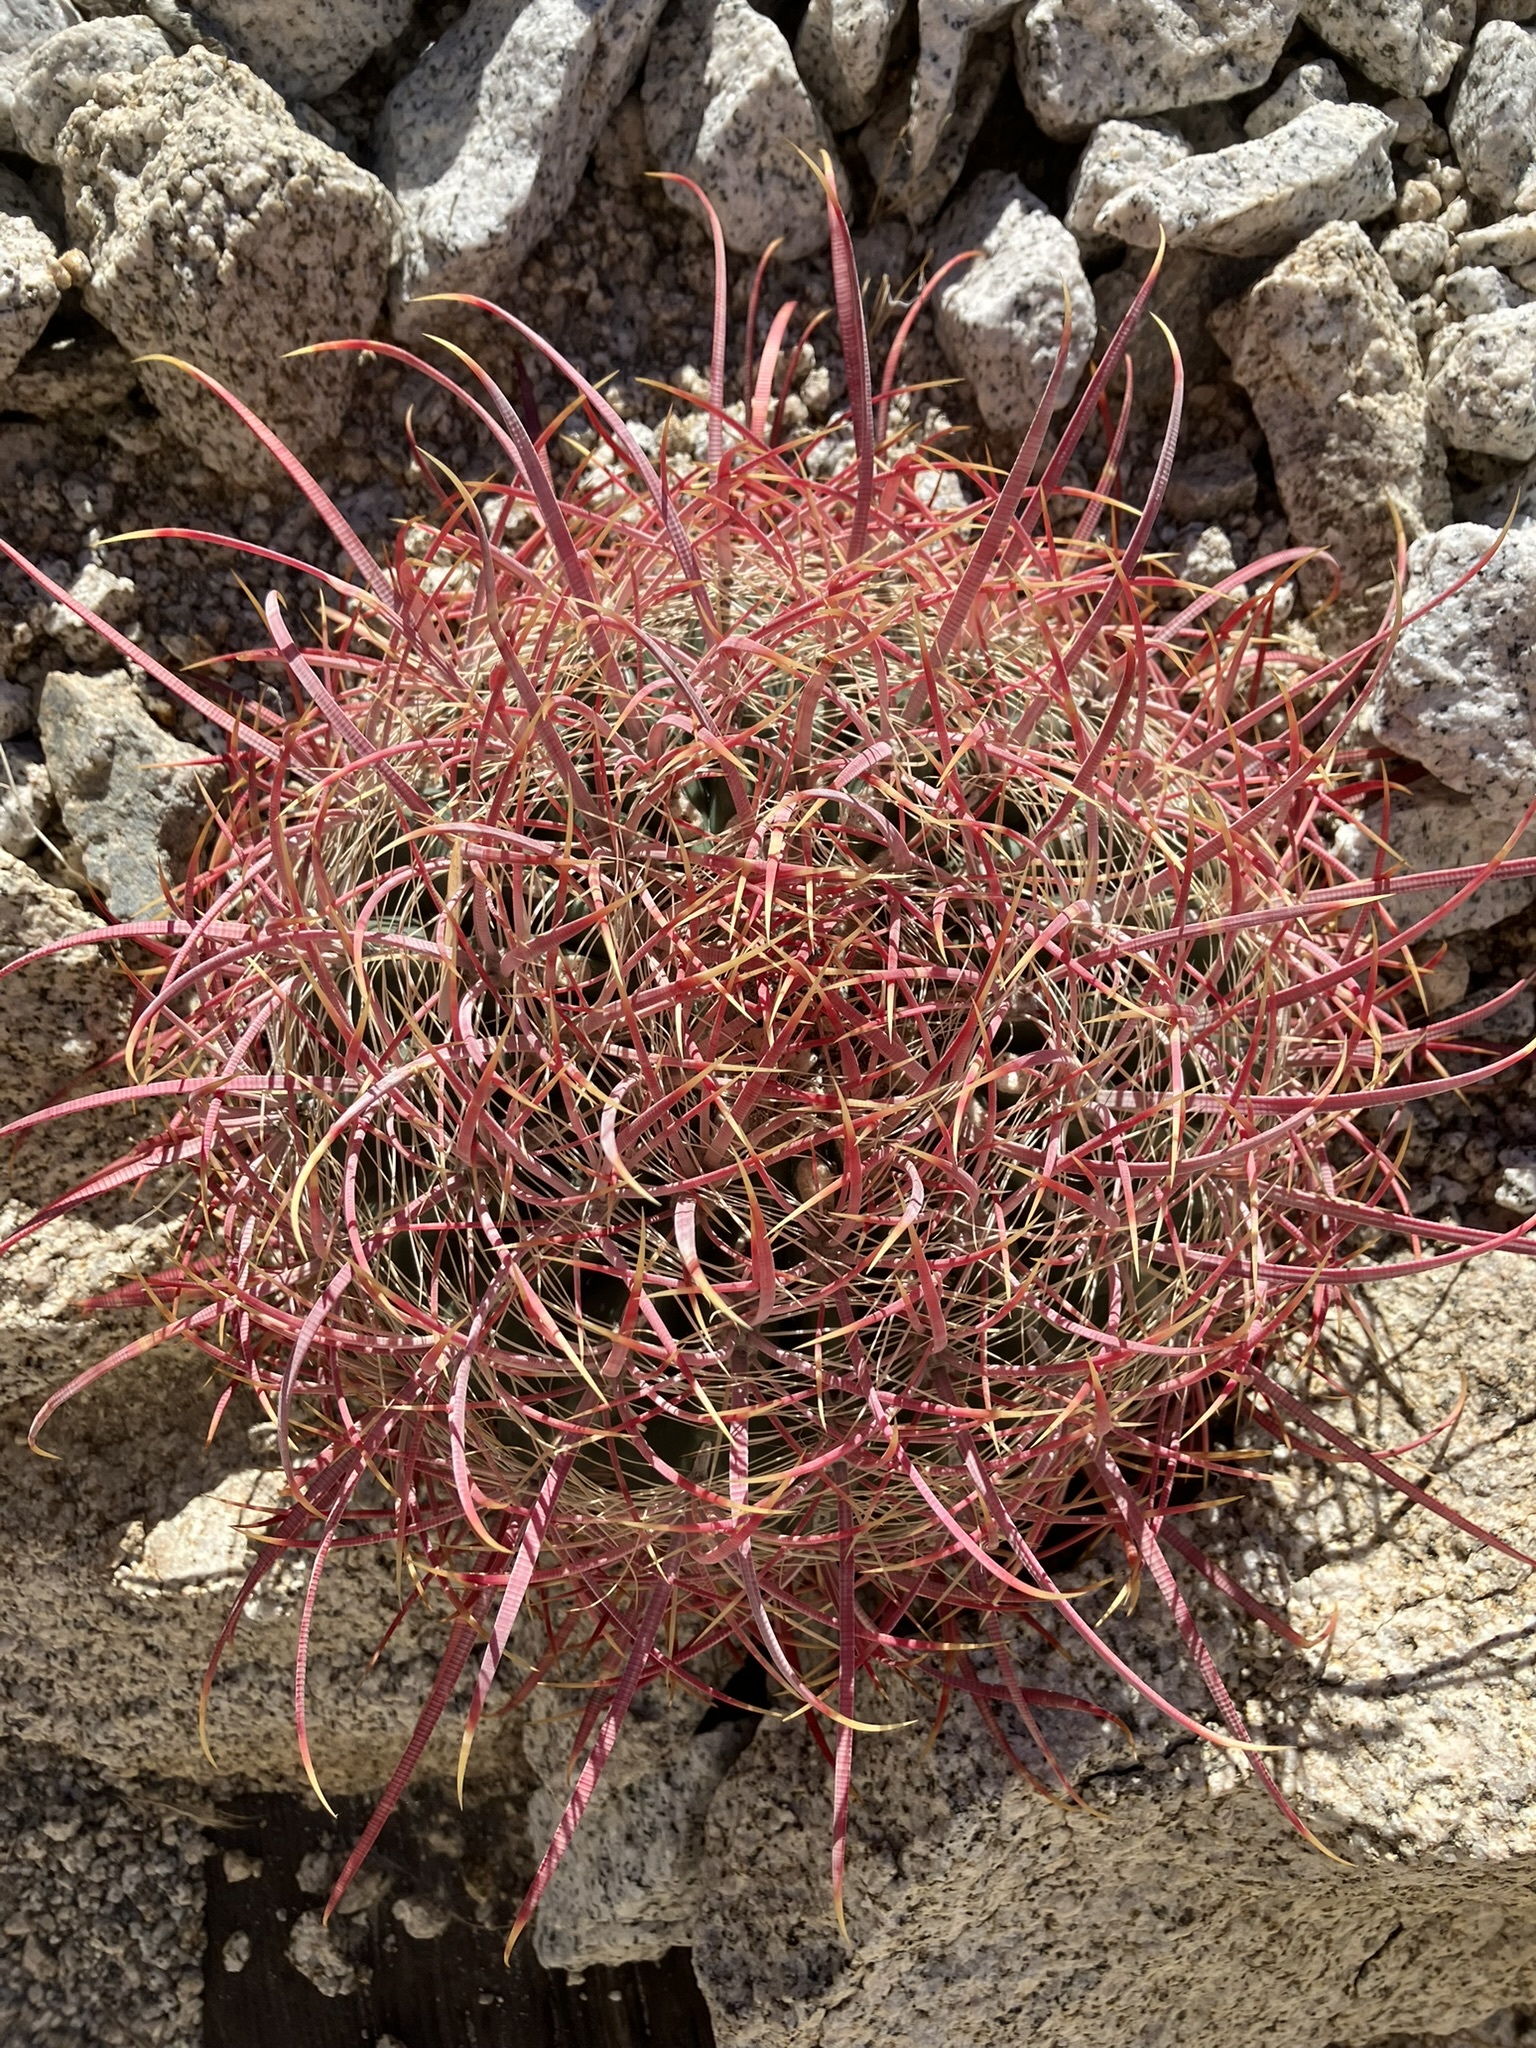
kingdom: Plantae
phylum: Tracheophyta
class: Magnoliopsida
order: Caryophyllales
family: Cactaceae
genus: Ferocactus
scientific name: Ferocactus cylindraceus
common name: California barrel cactus
